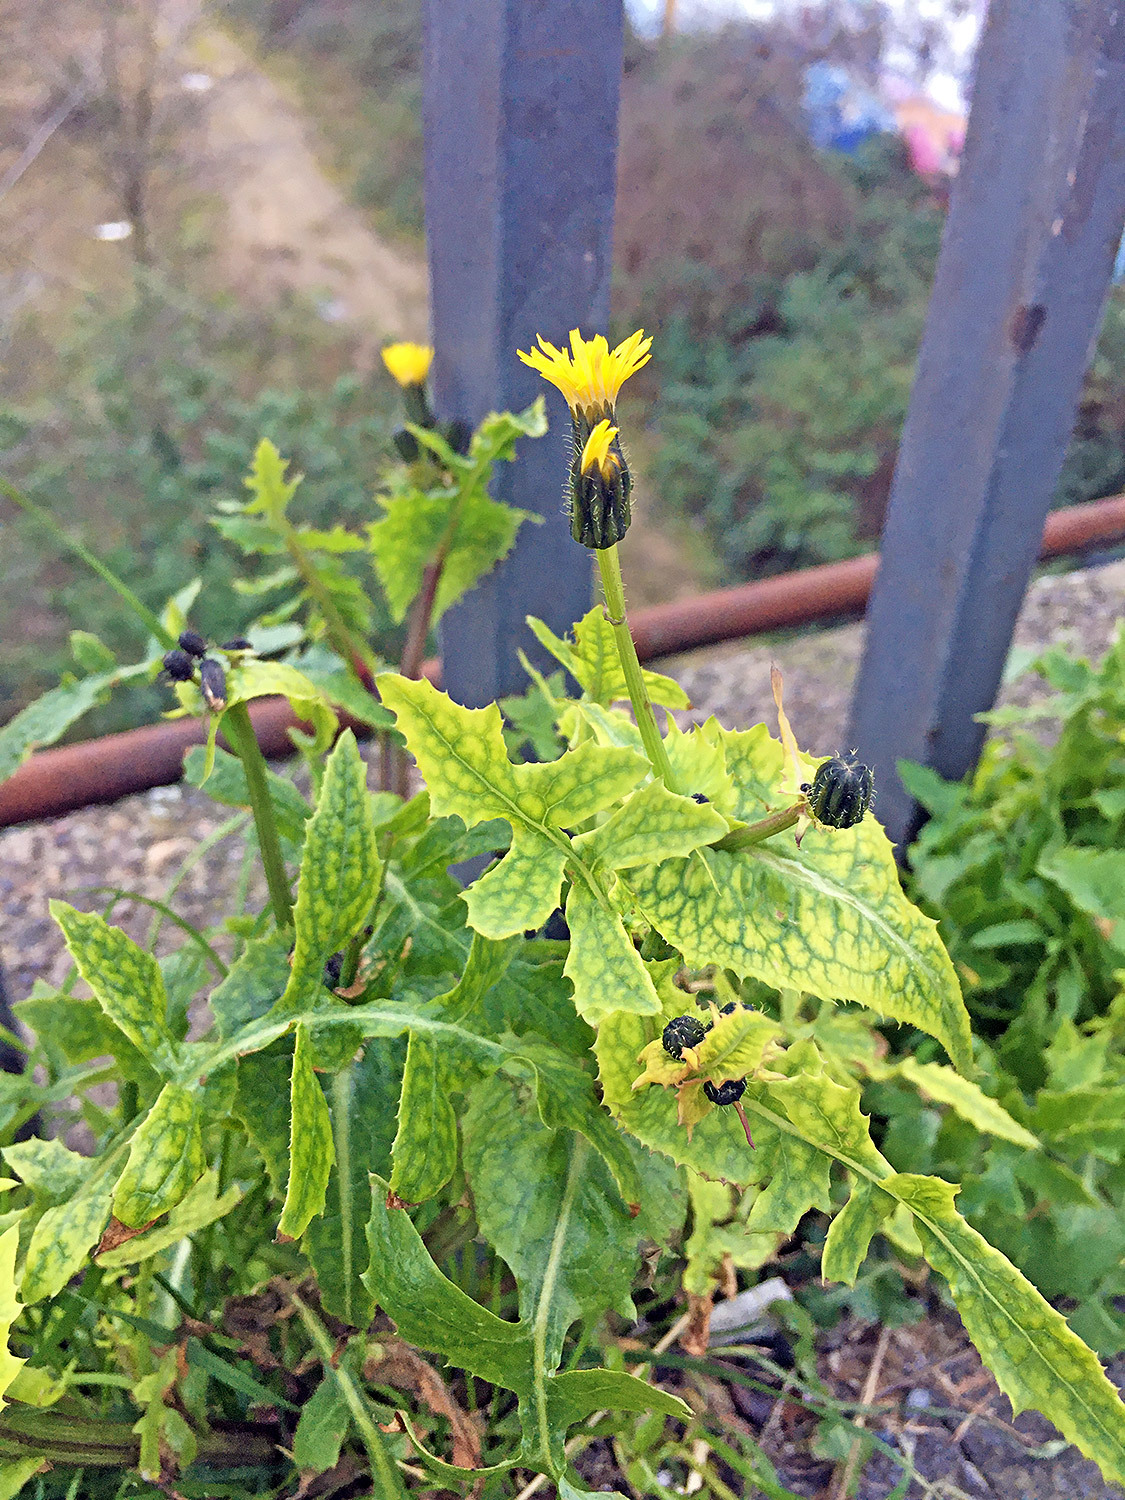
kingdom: Plantae
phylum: Tracheophyta
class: Magnoliopsida
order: Asterales
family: Asteraceae
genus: Sonchus
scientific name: Sonchus oleraceus
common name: Common sowthistle
